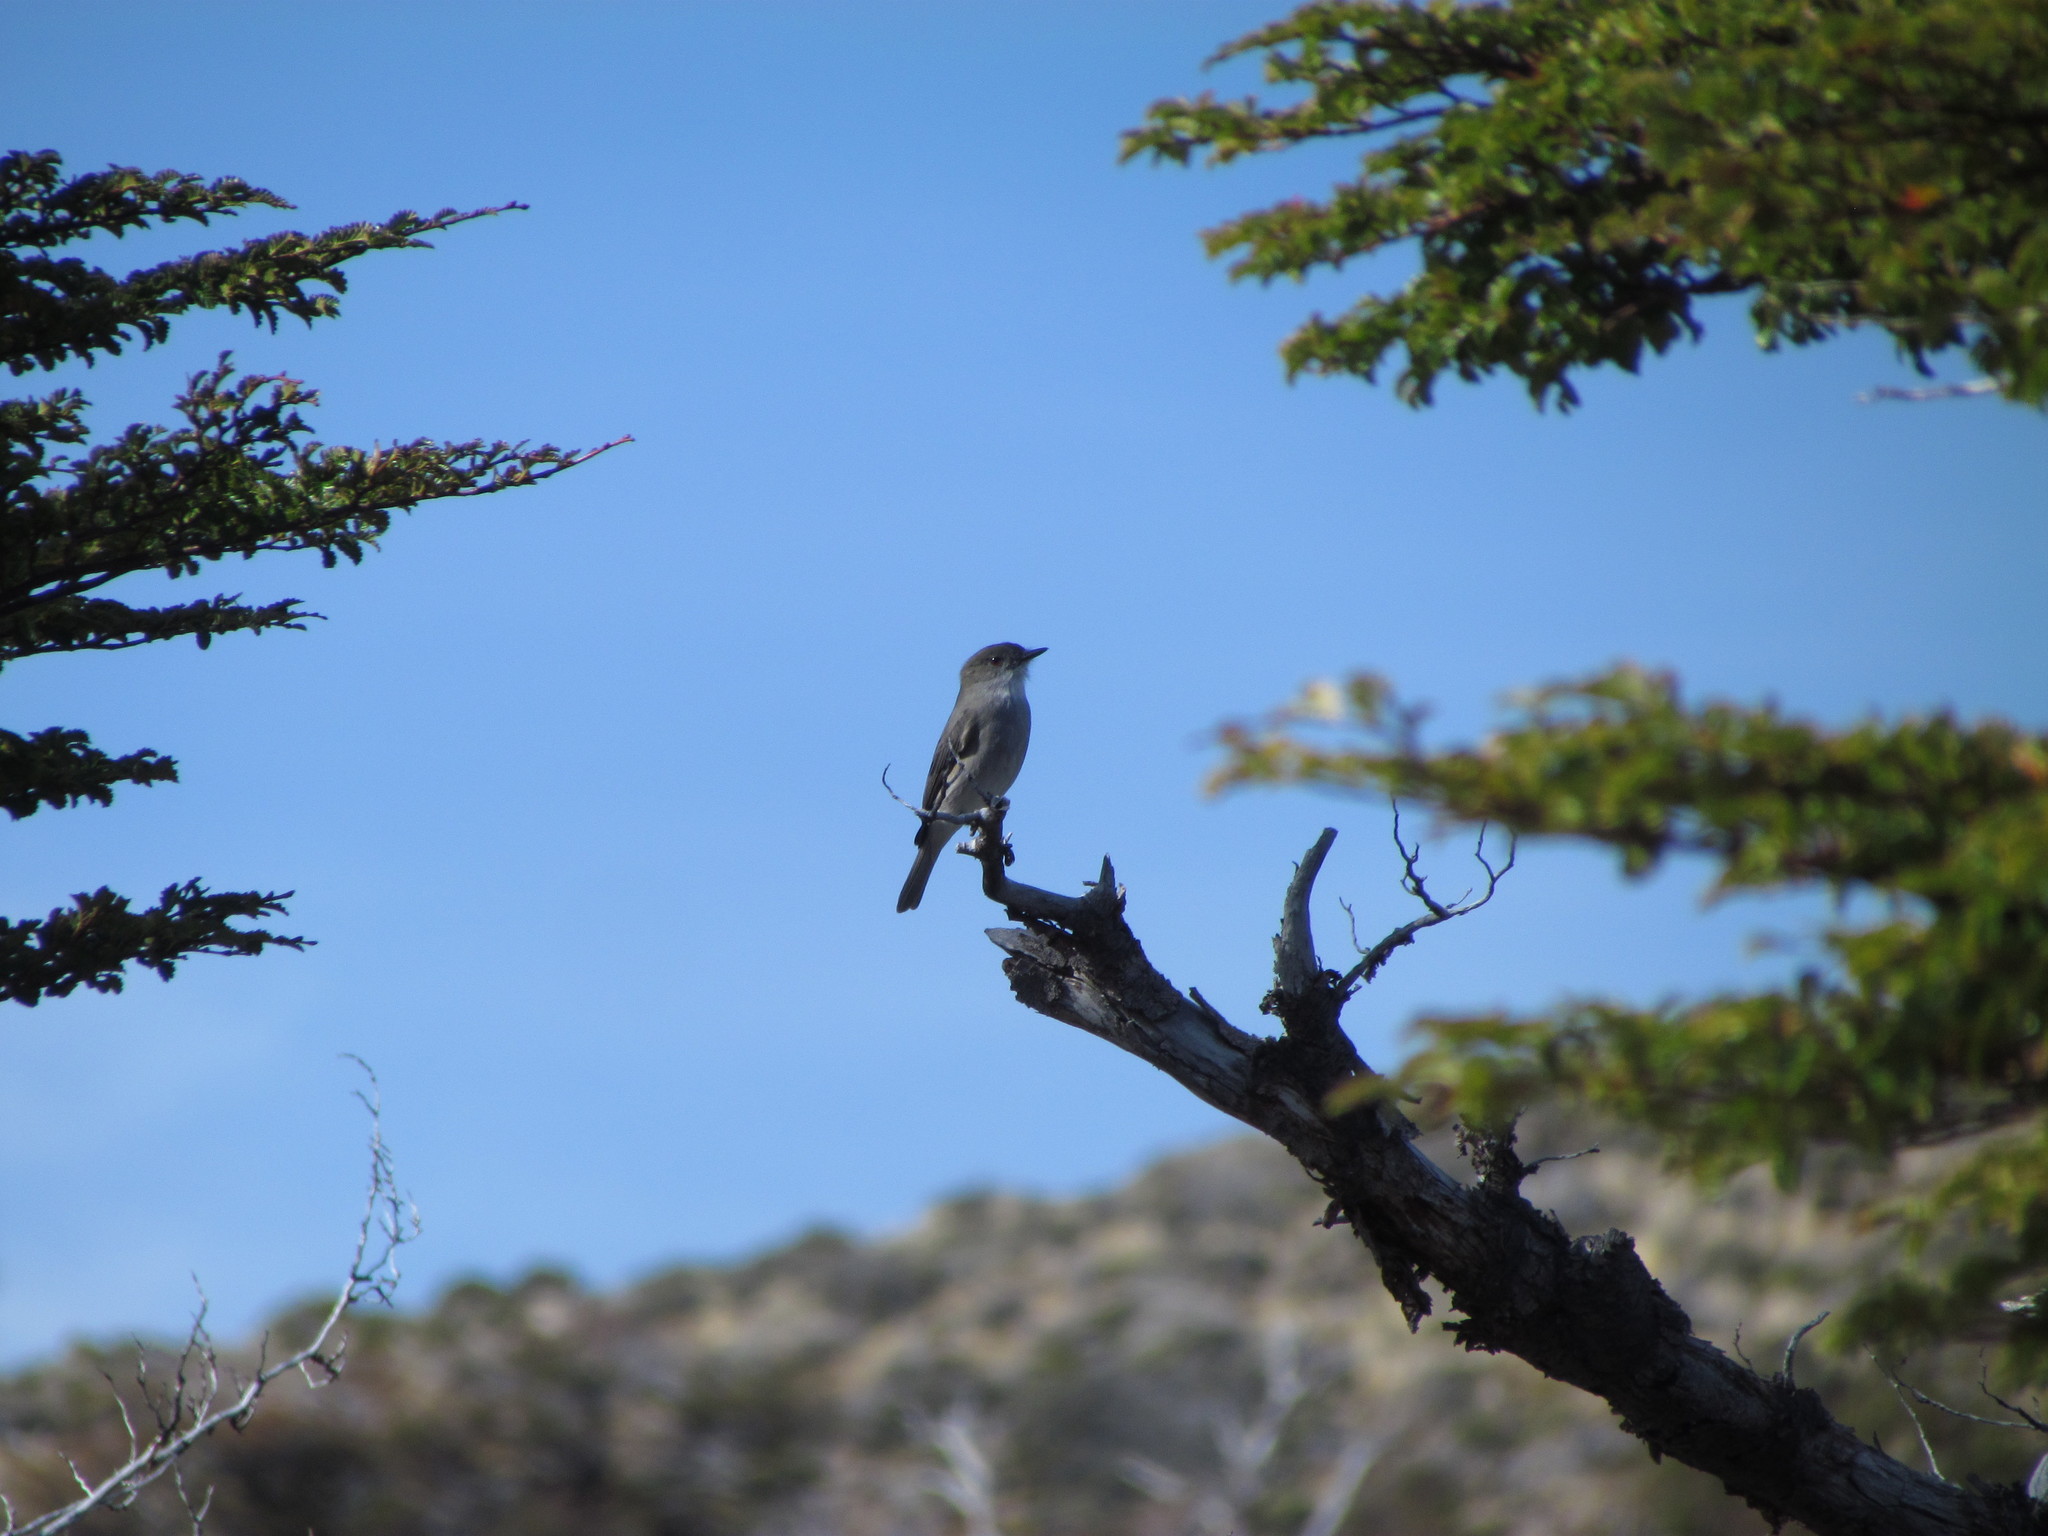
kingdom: Animalia
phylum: Chordata
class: Aves
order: Passeriformes
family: Tyrannidae
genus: Xolmis
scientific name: Xolmis pyrope
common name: Fire-eyed diucon
